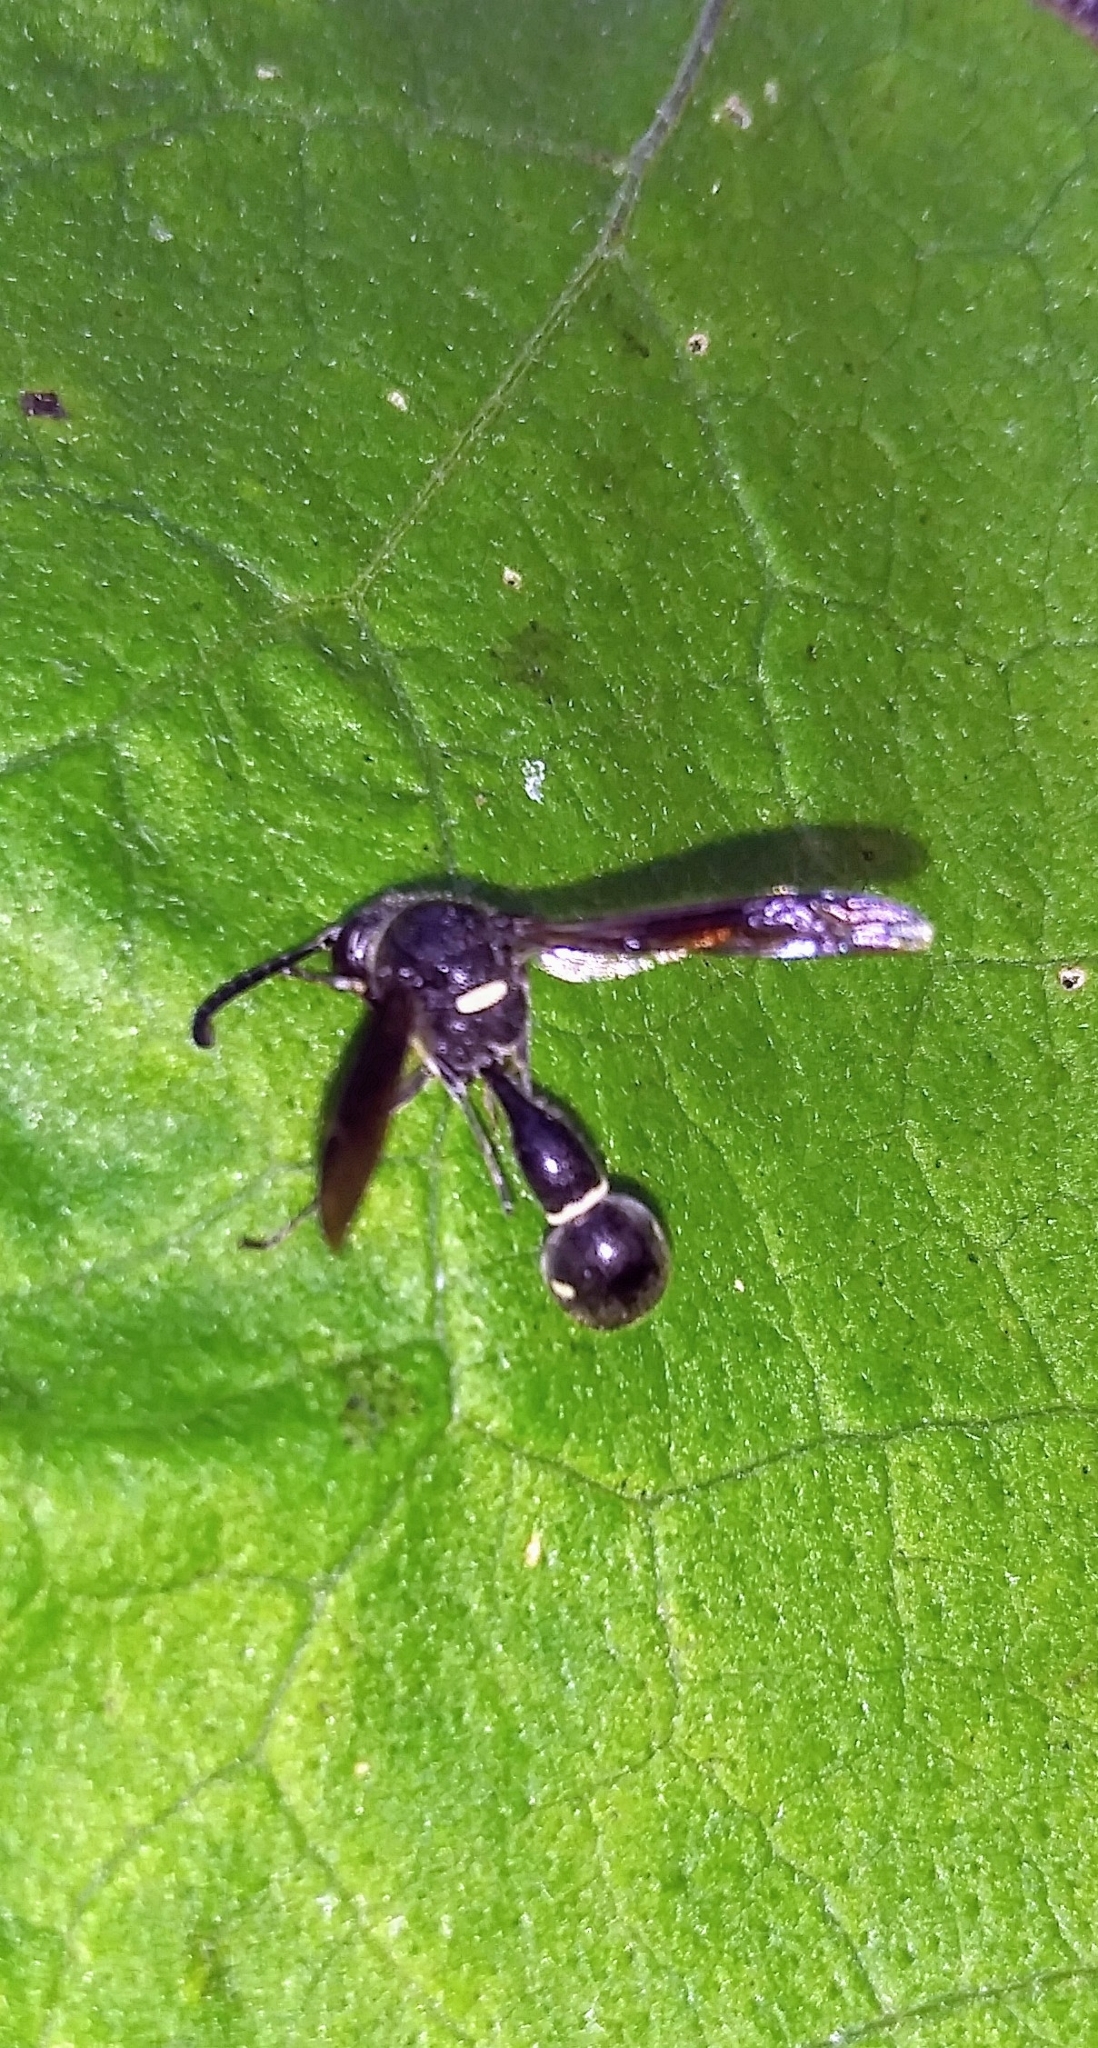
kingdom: Animalia
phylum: Arthropoda
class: Insecta
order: Hymenoptera
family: Vespidae
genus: Eumenes
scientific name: Eumenes fraternus
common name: Fraternal potter wasp
